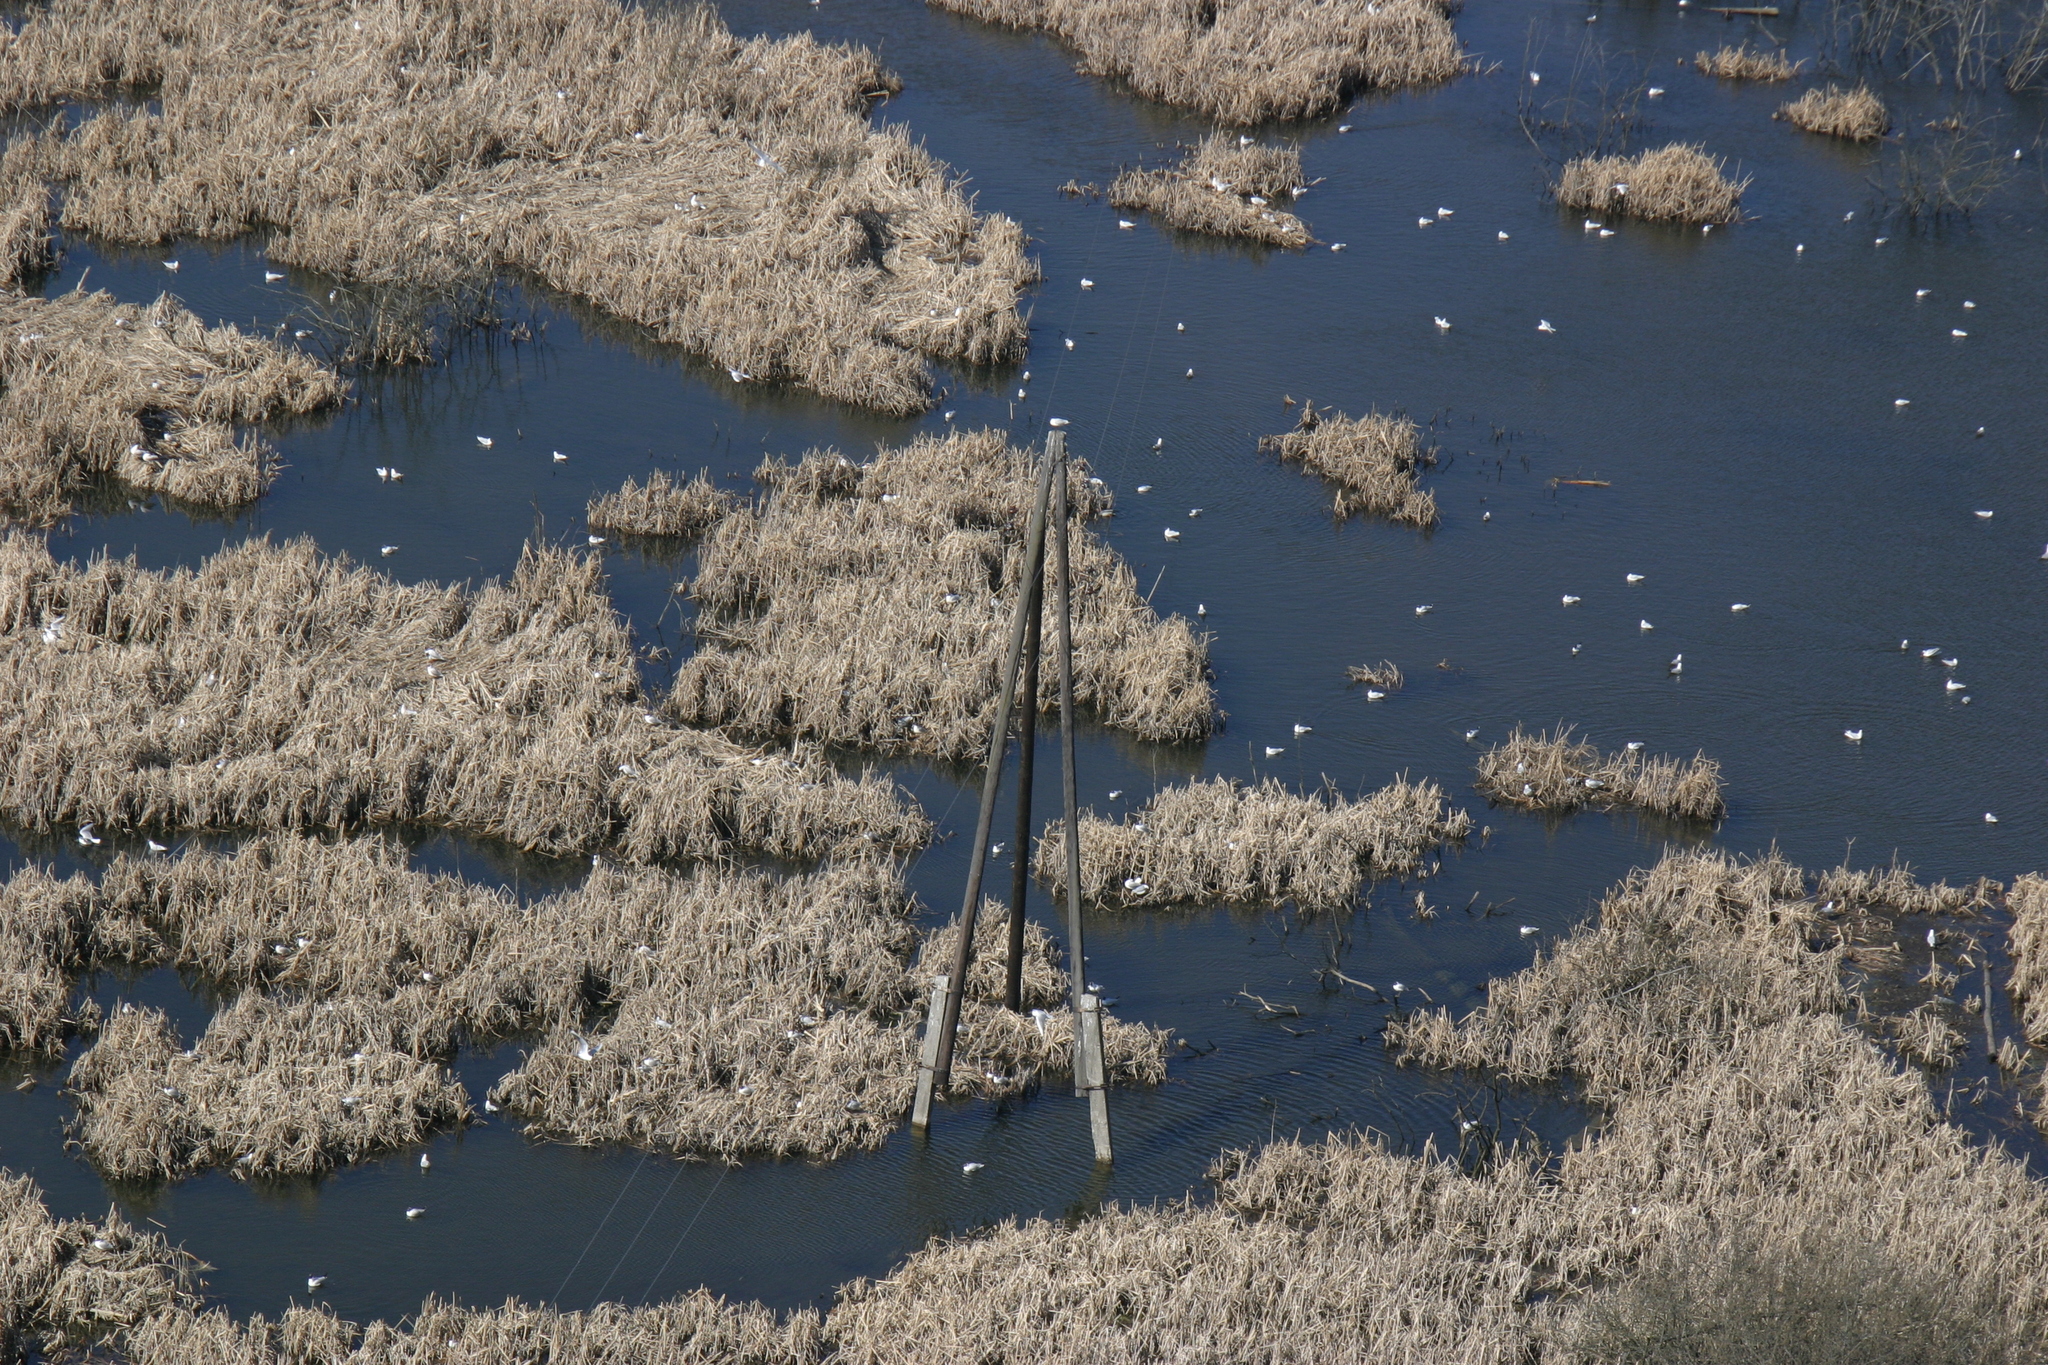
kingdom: Animalia
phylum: Chordata
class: Aves
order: Charadriiformes
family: Laridae
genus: Chroicocephalus
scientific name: Chroicocephalus ridibundus
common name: Black-headed gull
